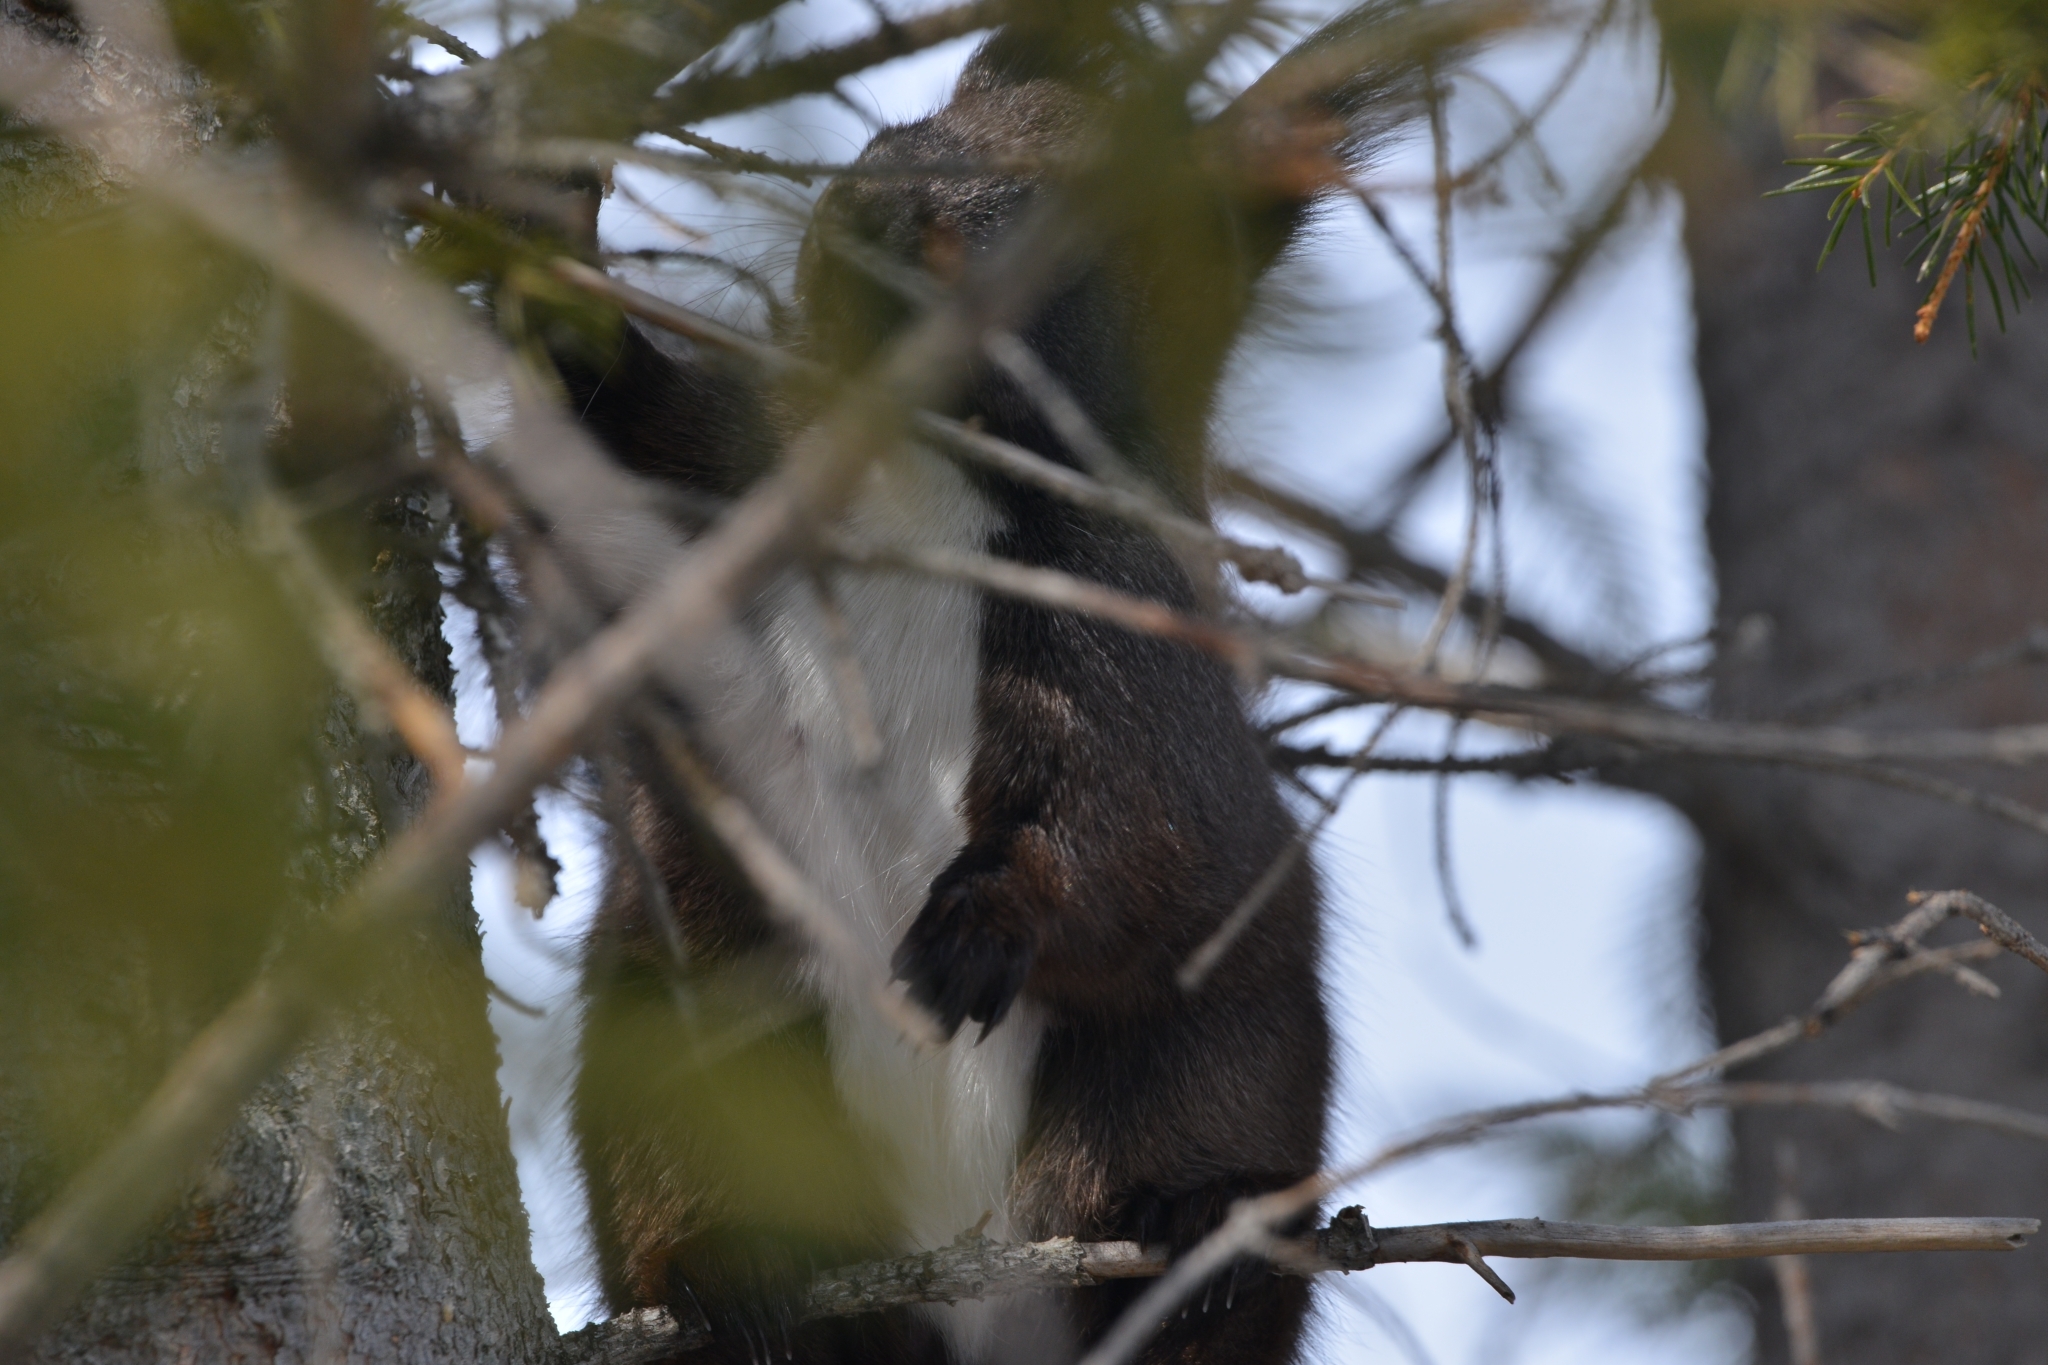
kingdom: Animalia
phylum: Chordata
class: Mammalia
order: Rodentia
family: Sciuridae
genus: Sciurus
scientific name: Sciurus vulgaris
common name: Eurasian red squirrel
